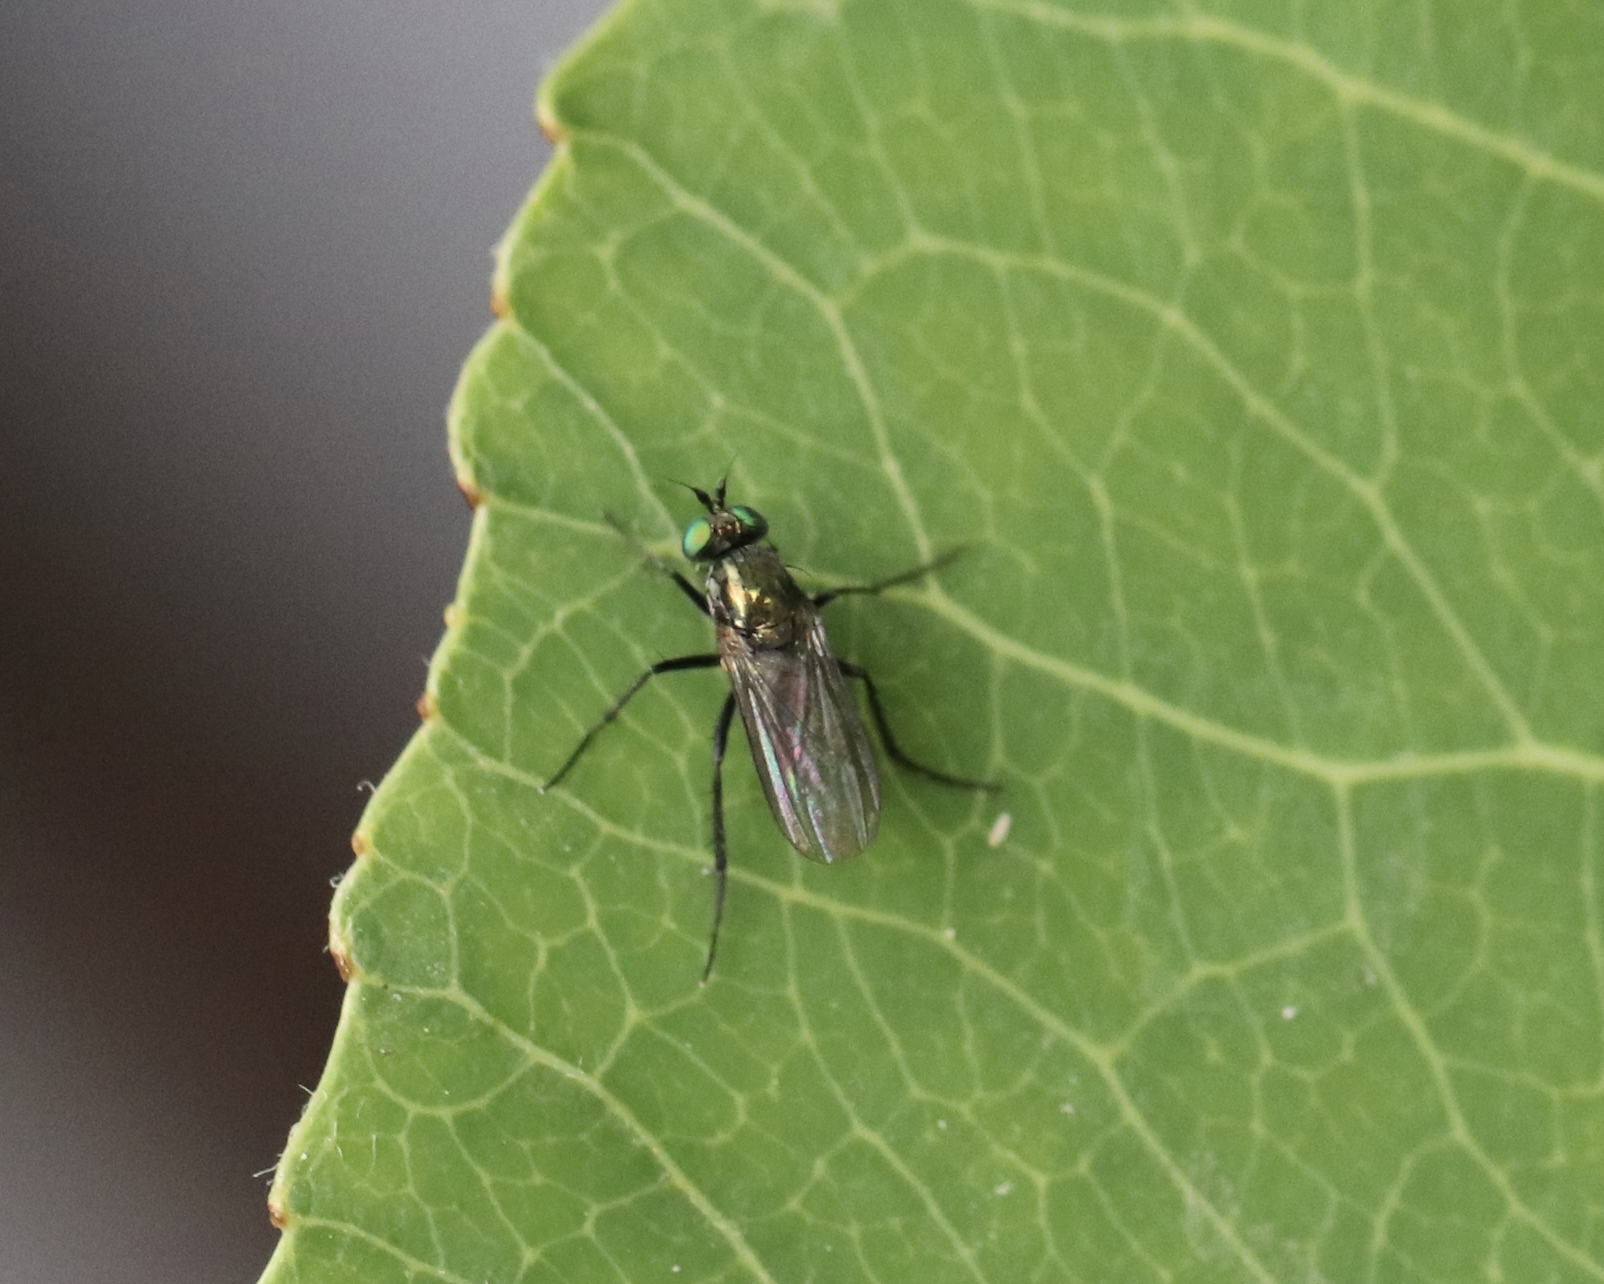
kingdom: Animalia
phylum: Arthropoda
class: Insecta
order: Diptera
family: Dolichopodidae
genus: Hercostomus
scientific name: Hercostomus unicolor
